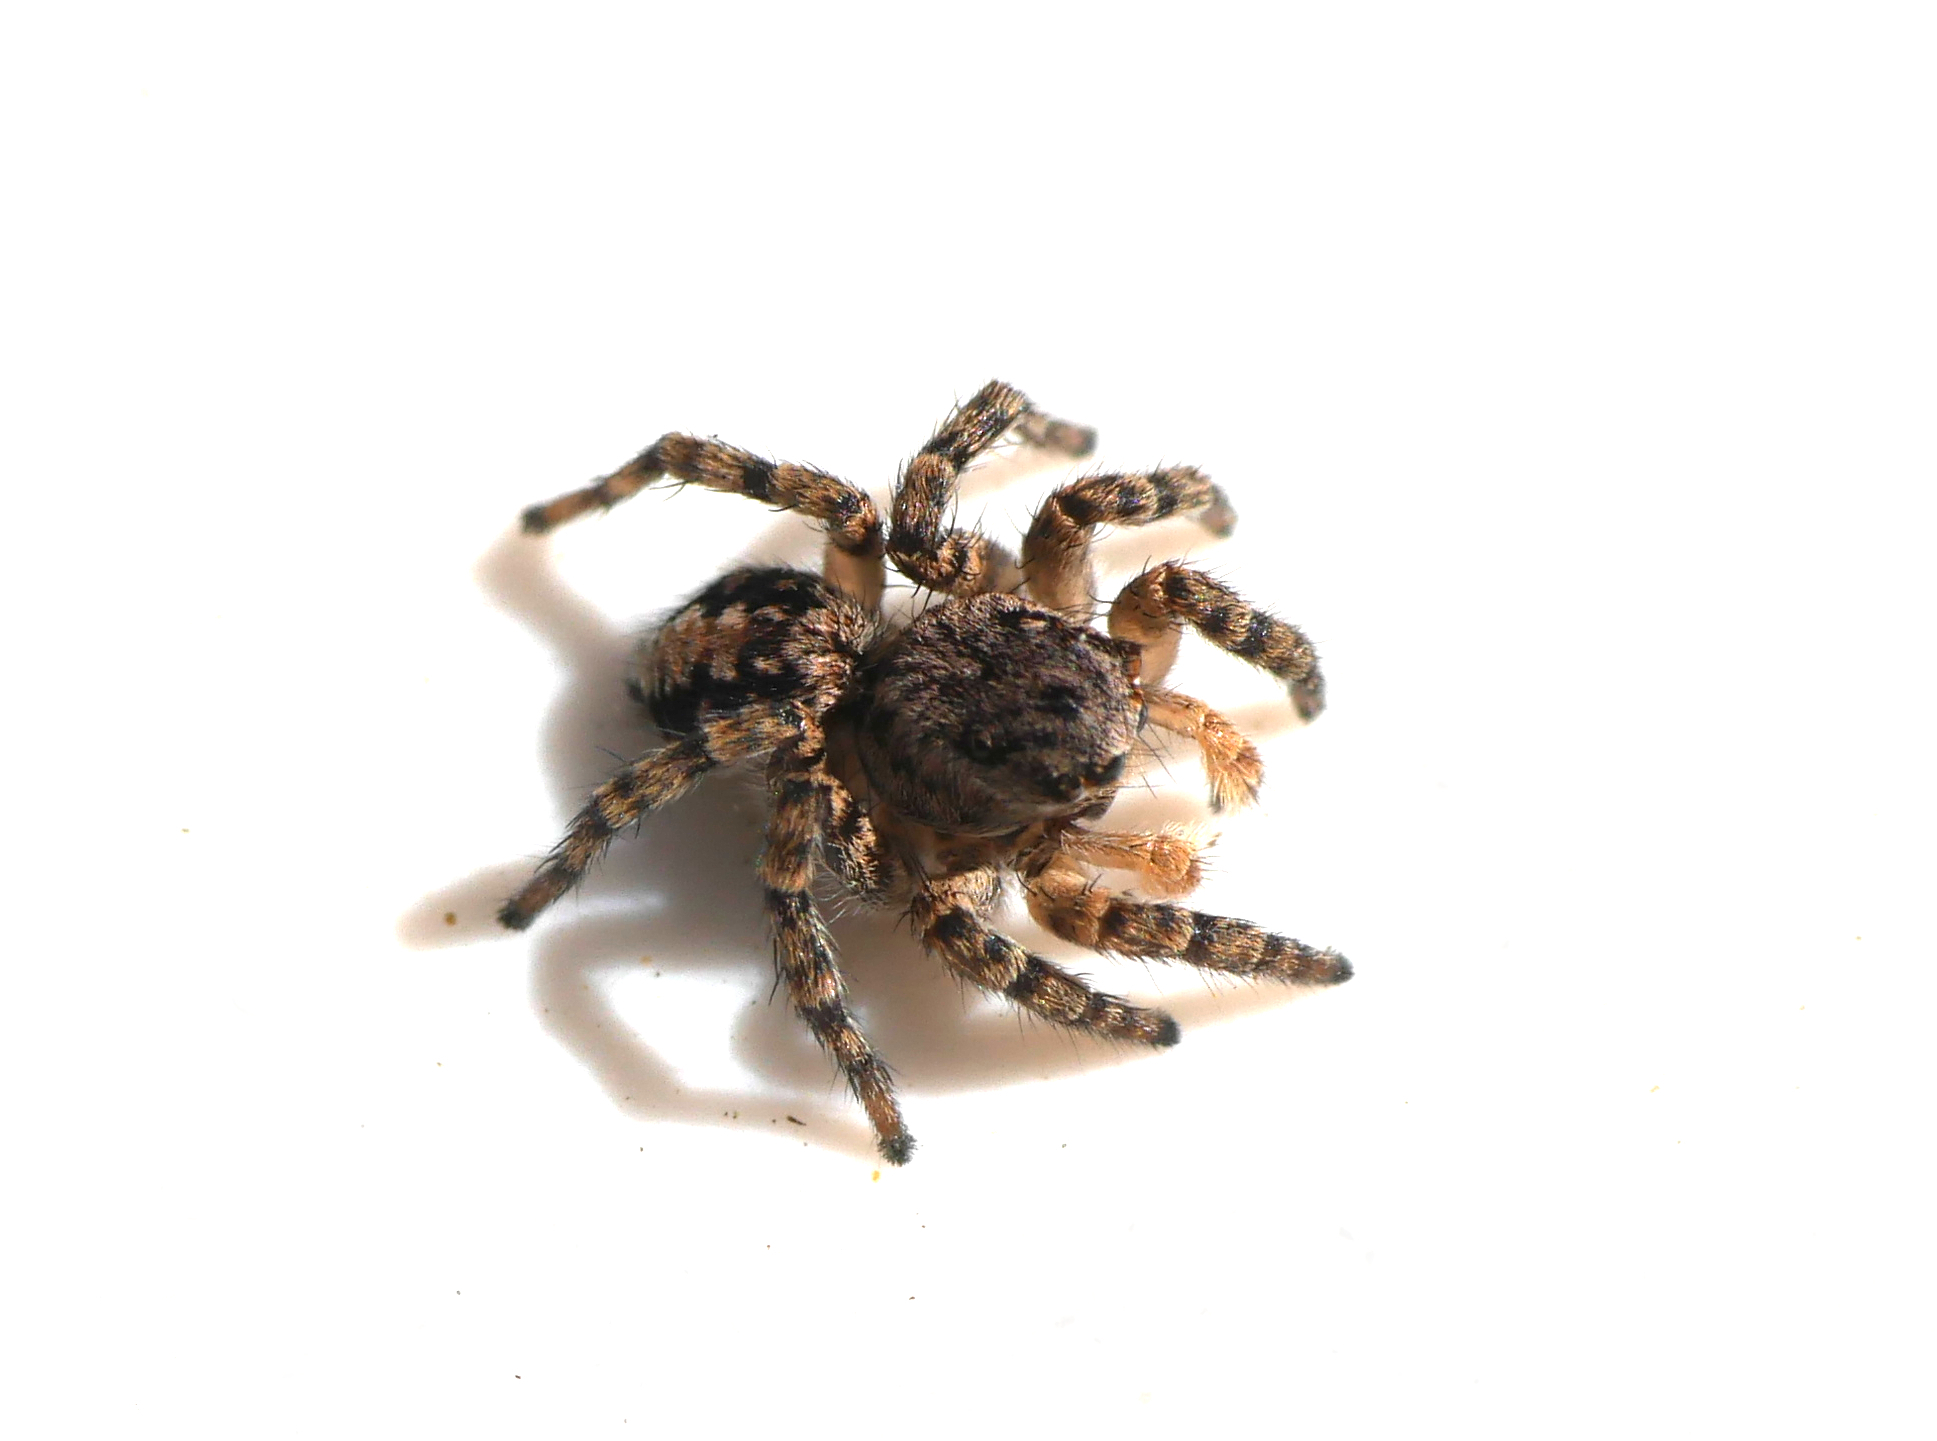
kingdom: Animalia
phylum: Arthropoda
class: Arachnida
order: Araneae
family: Salticidae
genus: Aelurillus
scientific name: Aelurillus v-insignitus
